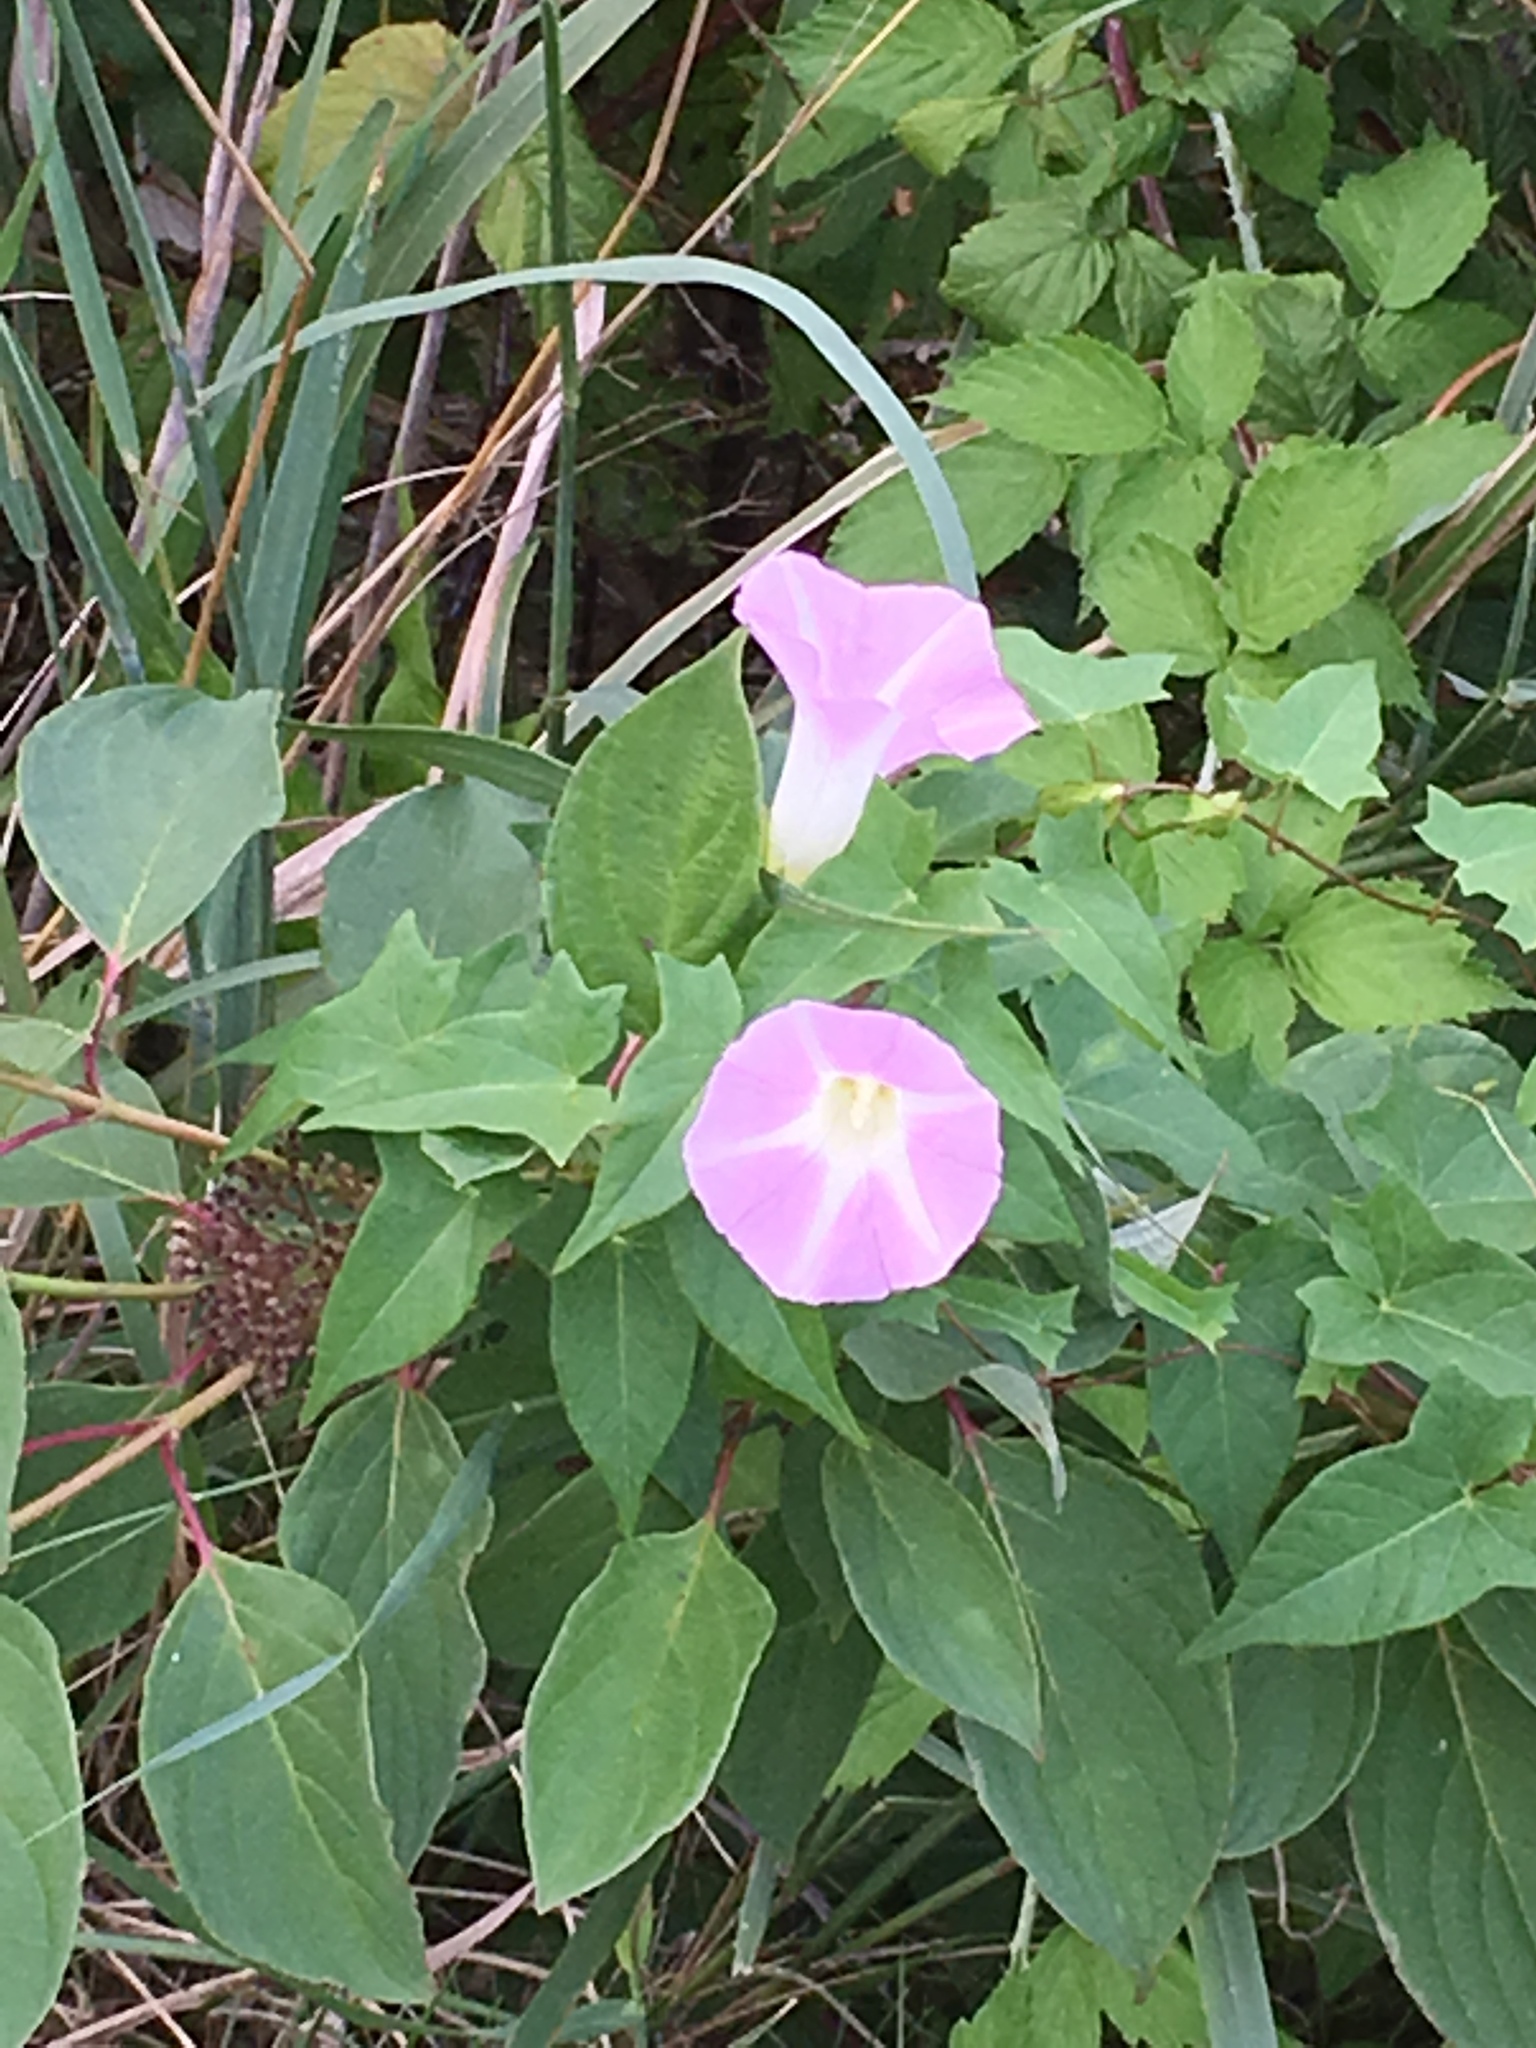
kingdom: Plantae
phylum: Tracheophyta
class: Magnoliopsida
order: Solanales
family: Convolvulaceae
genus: Convolvulus
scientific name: Convolvulus arvensis
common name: Field bindweed
